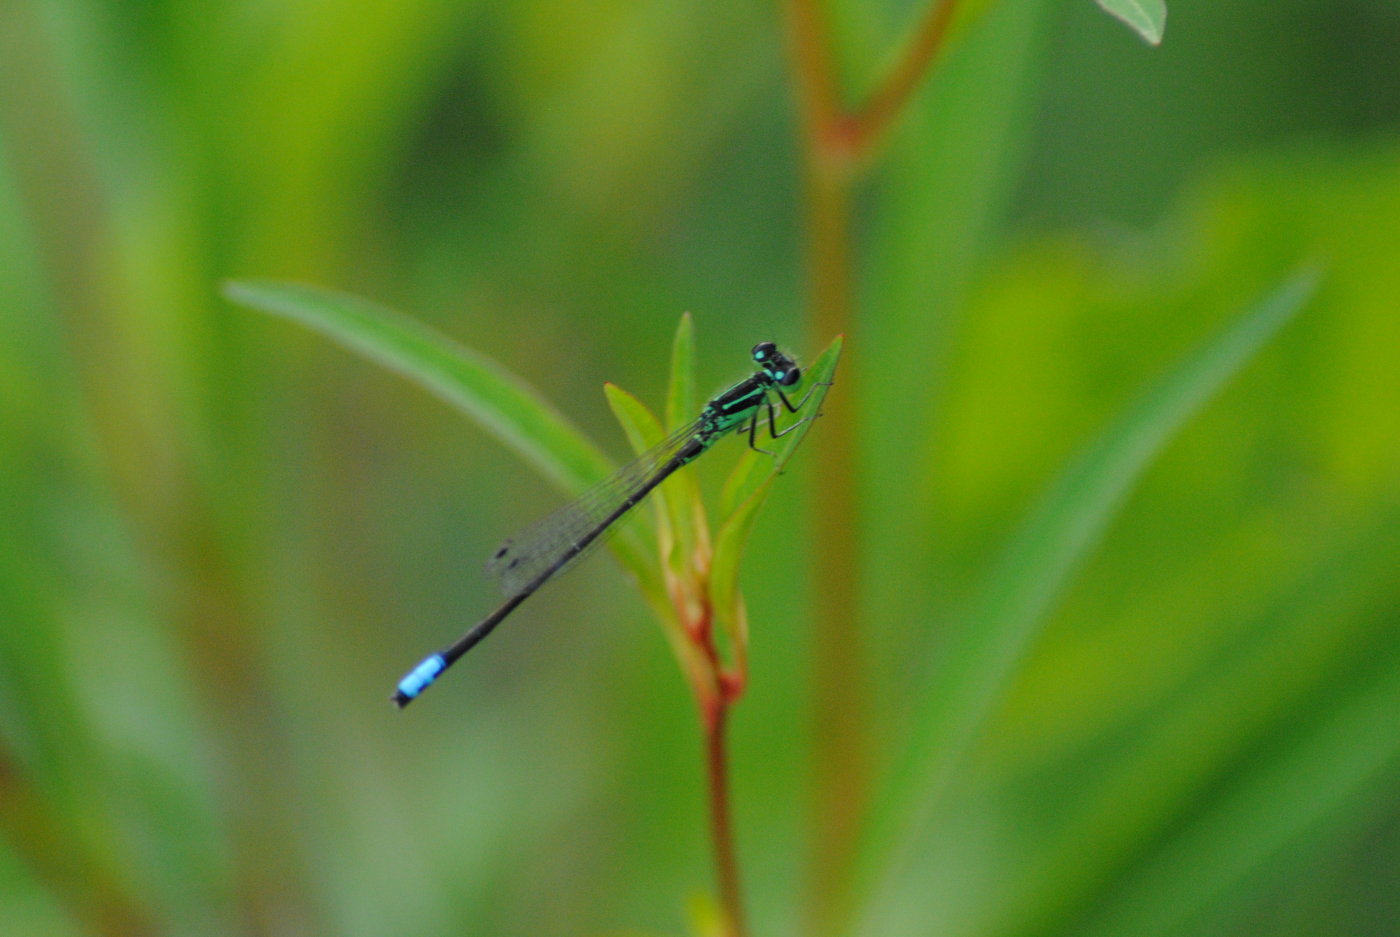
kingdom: Animalia
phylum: Arthropoda
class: Insecta
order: Odonata
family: Coenagrionidae
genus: Ischnura
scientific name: Ischnura verticalis
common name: Eastern forktail
